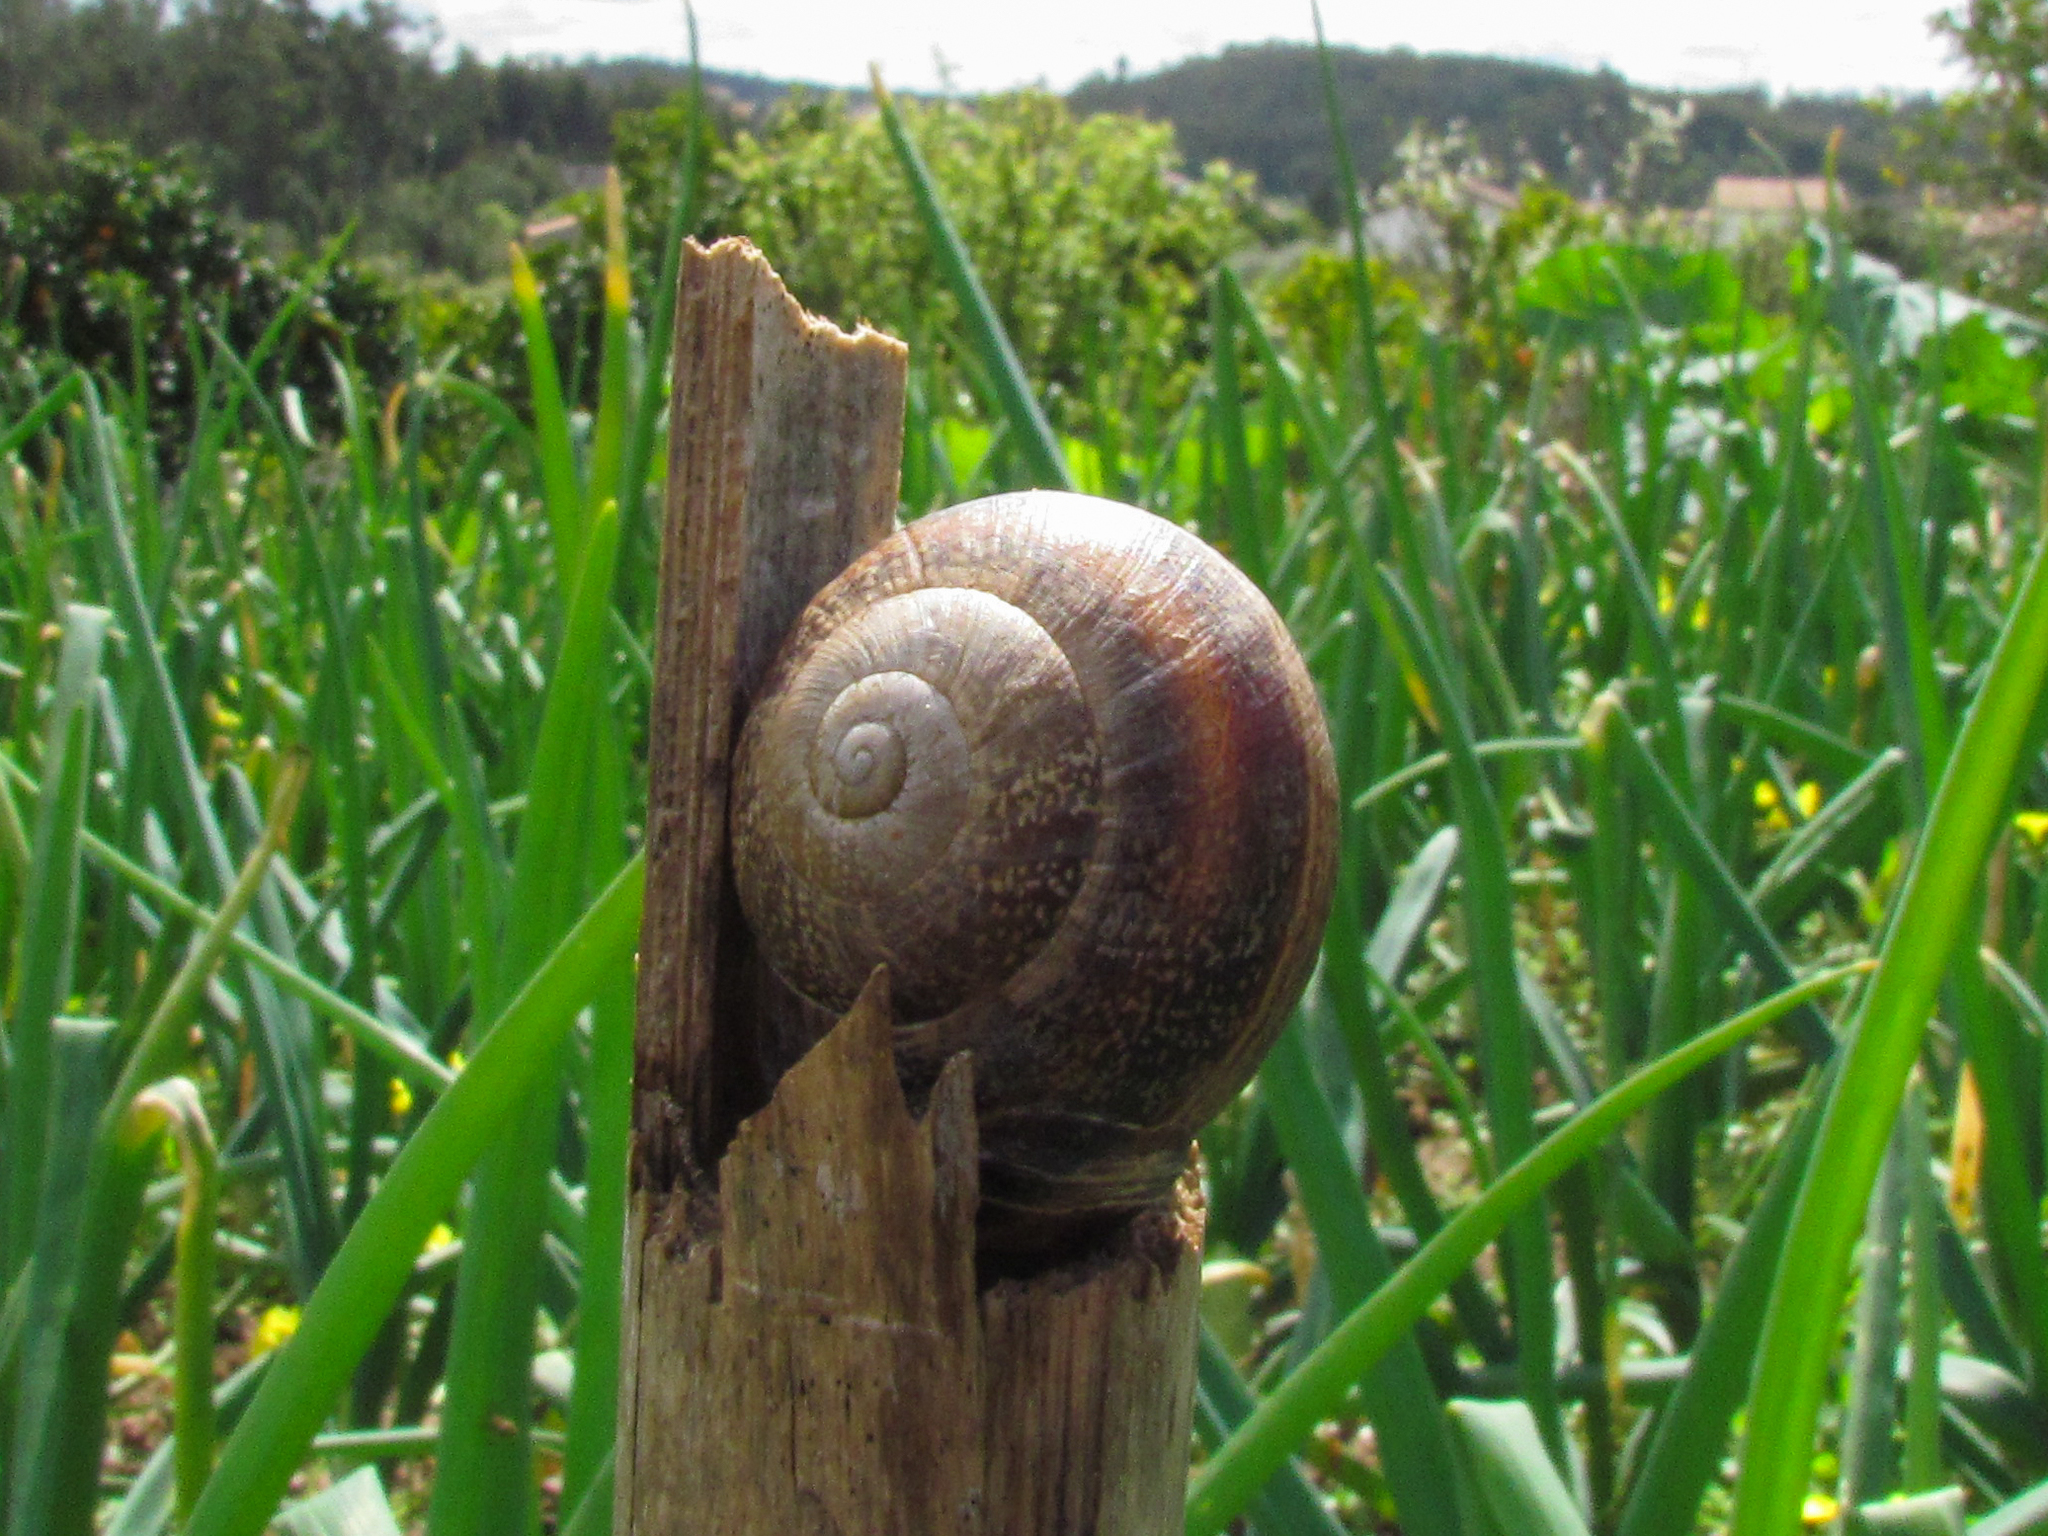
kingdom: Animalia
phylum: Mollusca
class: Gastropoda
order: Stylommatophora
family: Helicidae
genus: Otala
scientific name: Otala lactea
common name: Milk snail
